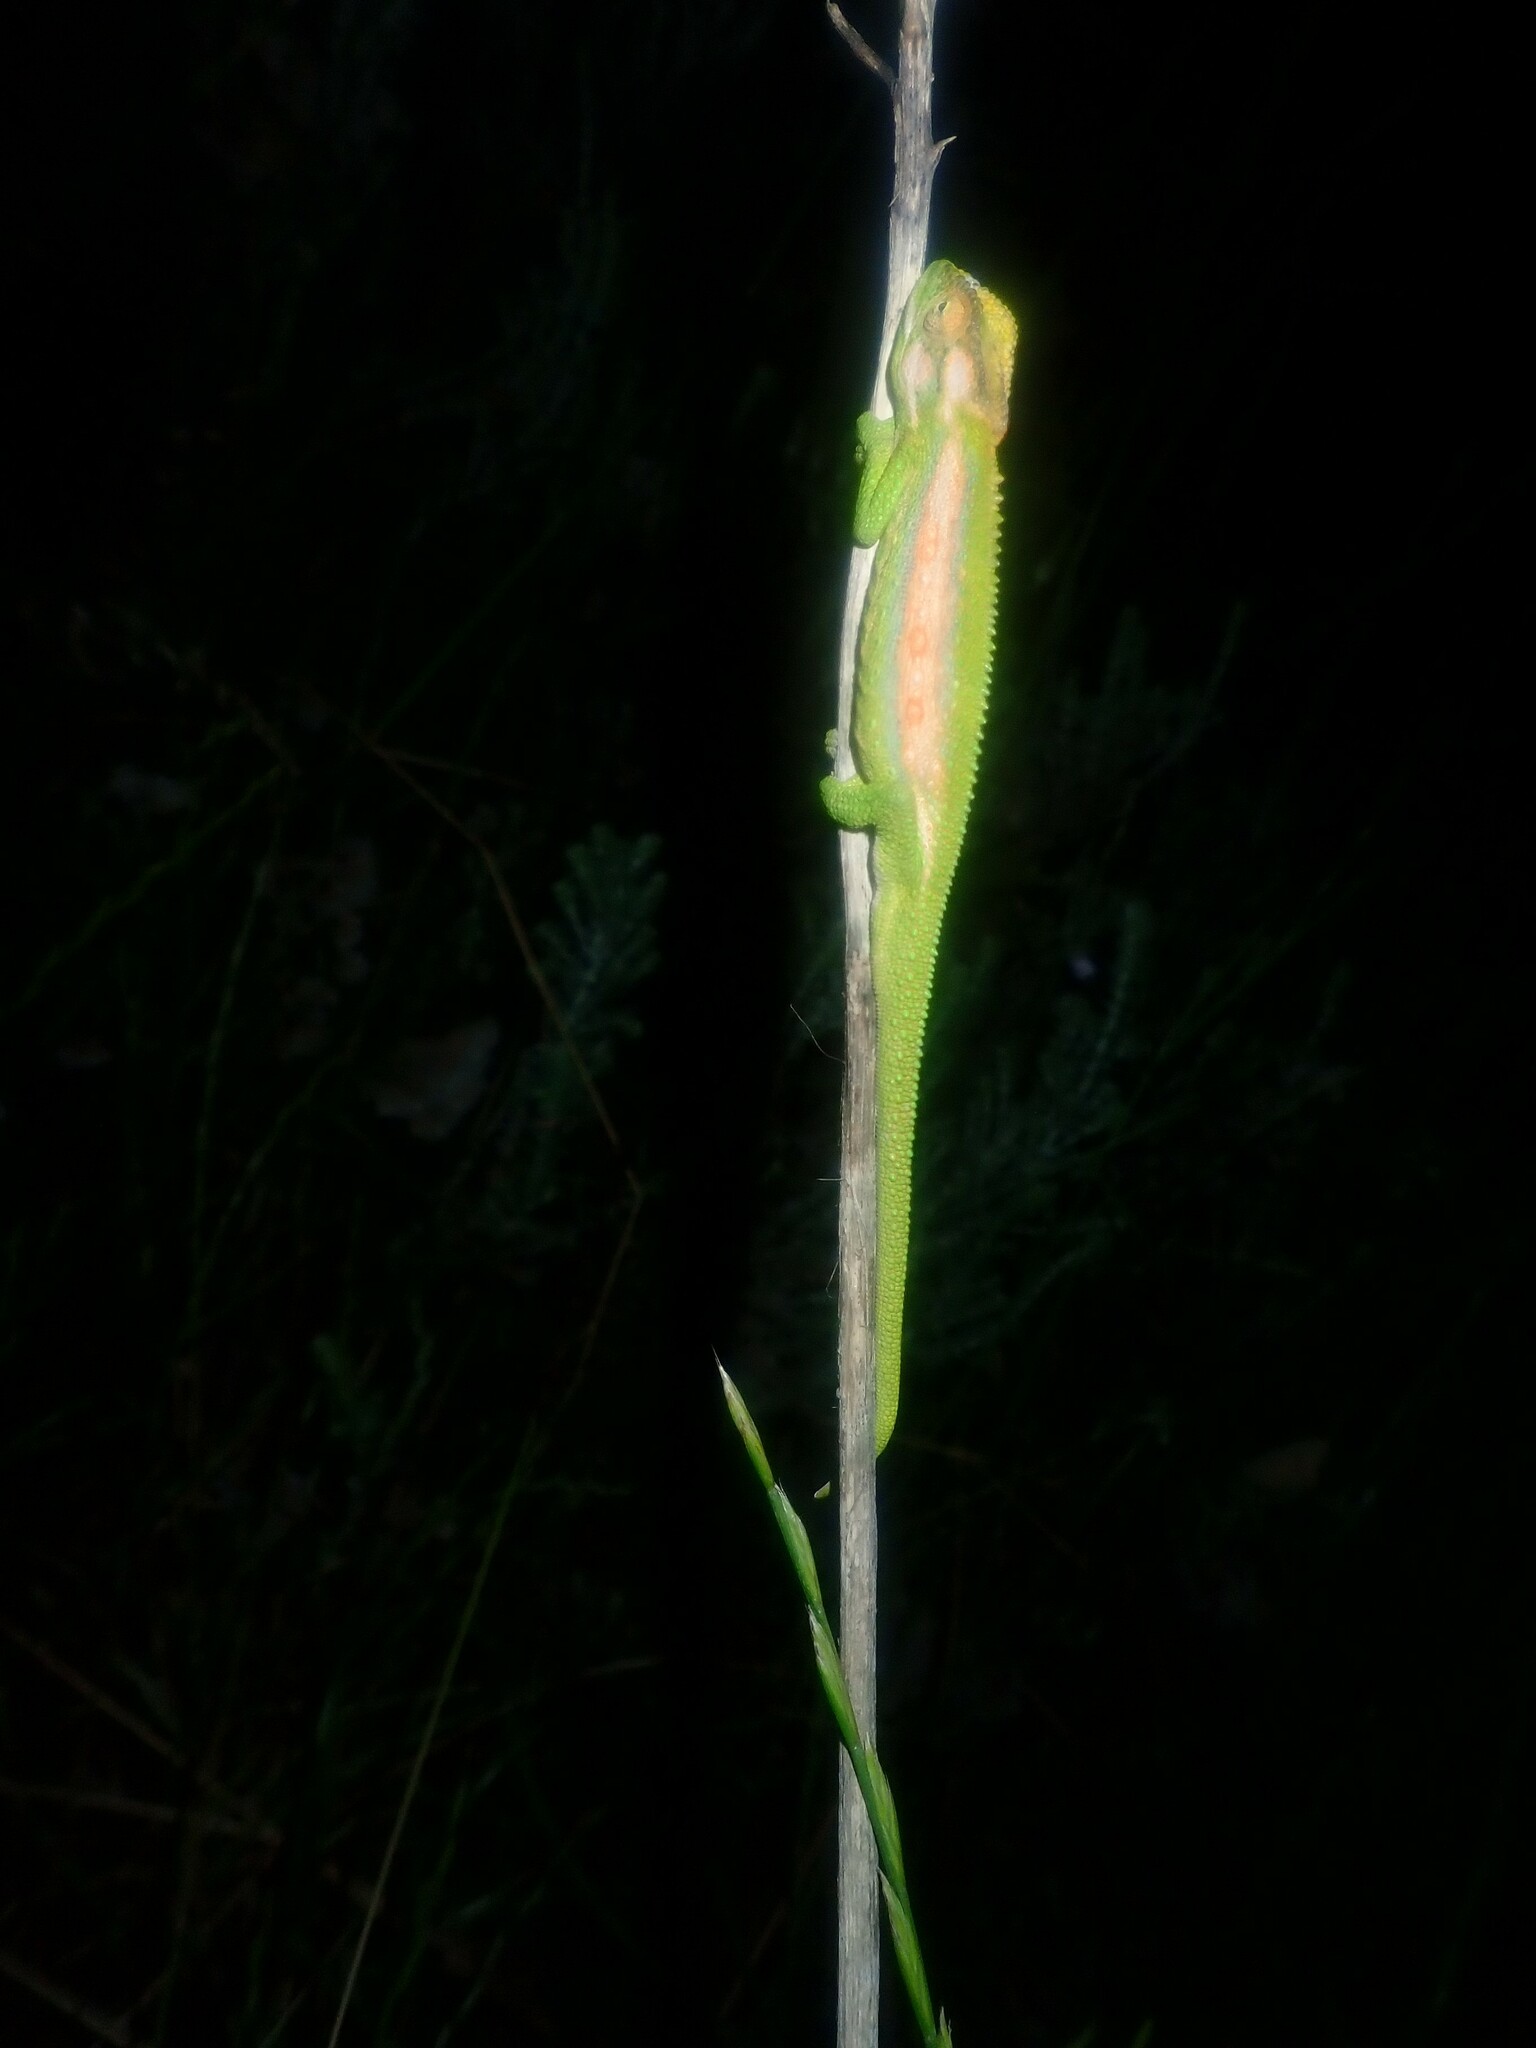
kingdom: Animalia
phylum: Chordata
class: Squamata
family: Chamaeleonidae
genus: Bradypodion
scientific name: Bradypodion pumilum
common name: Cape dwarf chameleon
